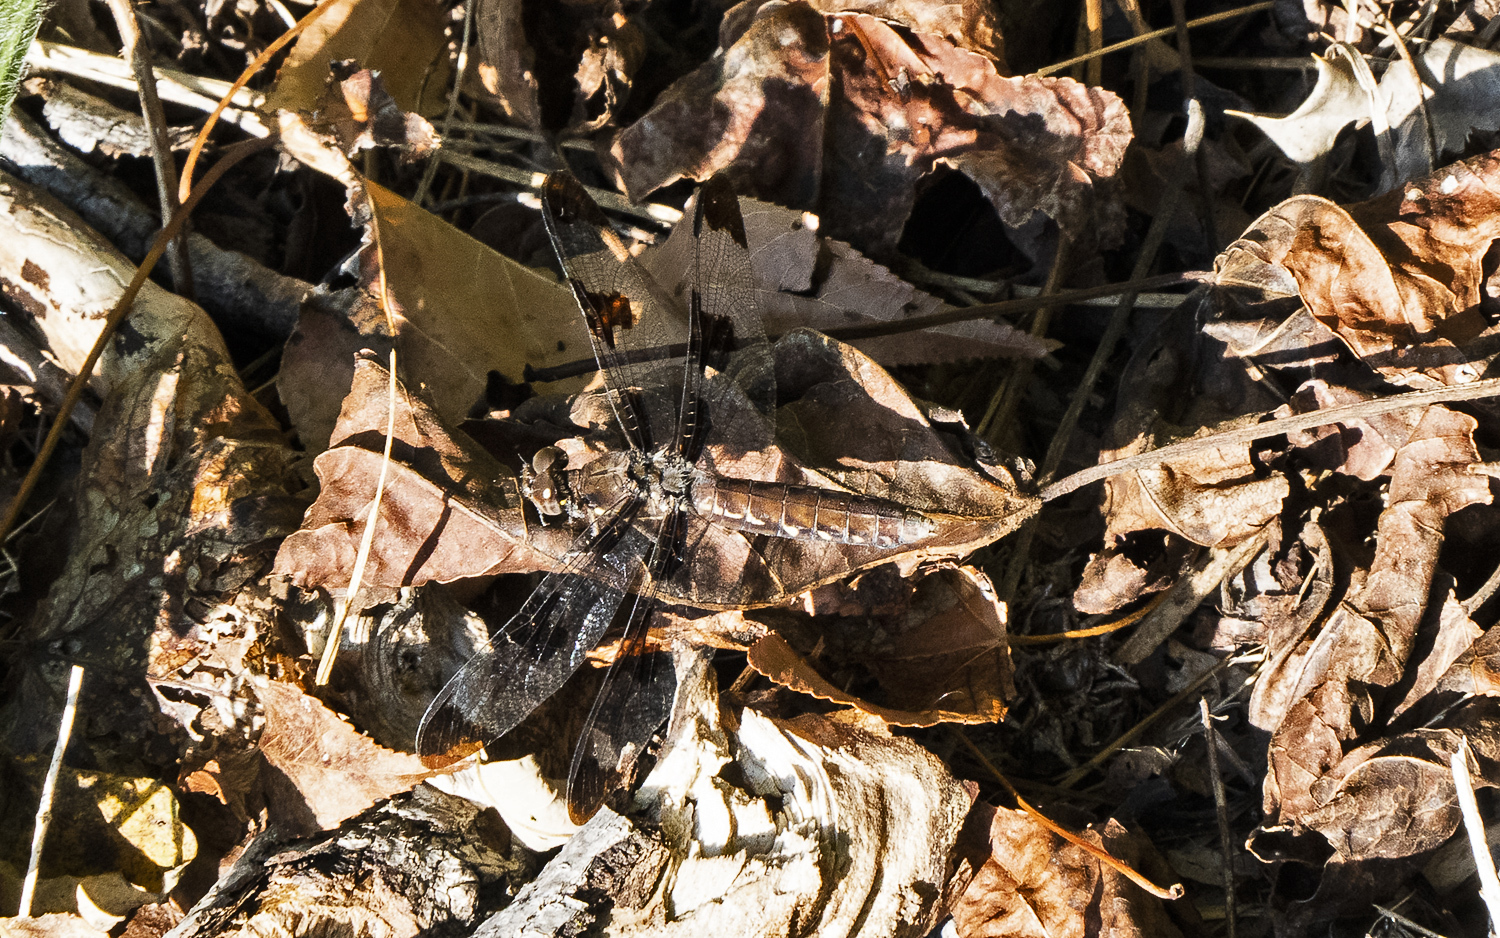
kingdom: Animalia
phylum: Arthropoda
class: Insecta
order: Odonata
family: Libellulidae
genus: Plathemis
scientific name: Plathemis lydia
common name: Common whitetail
